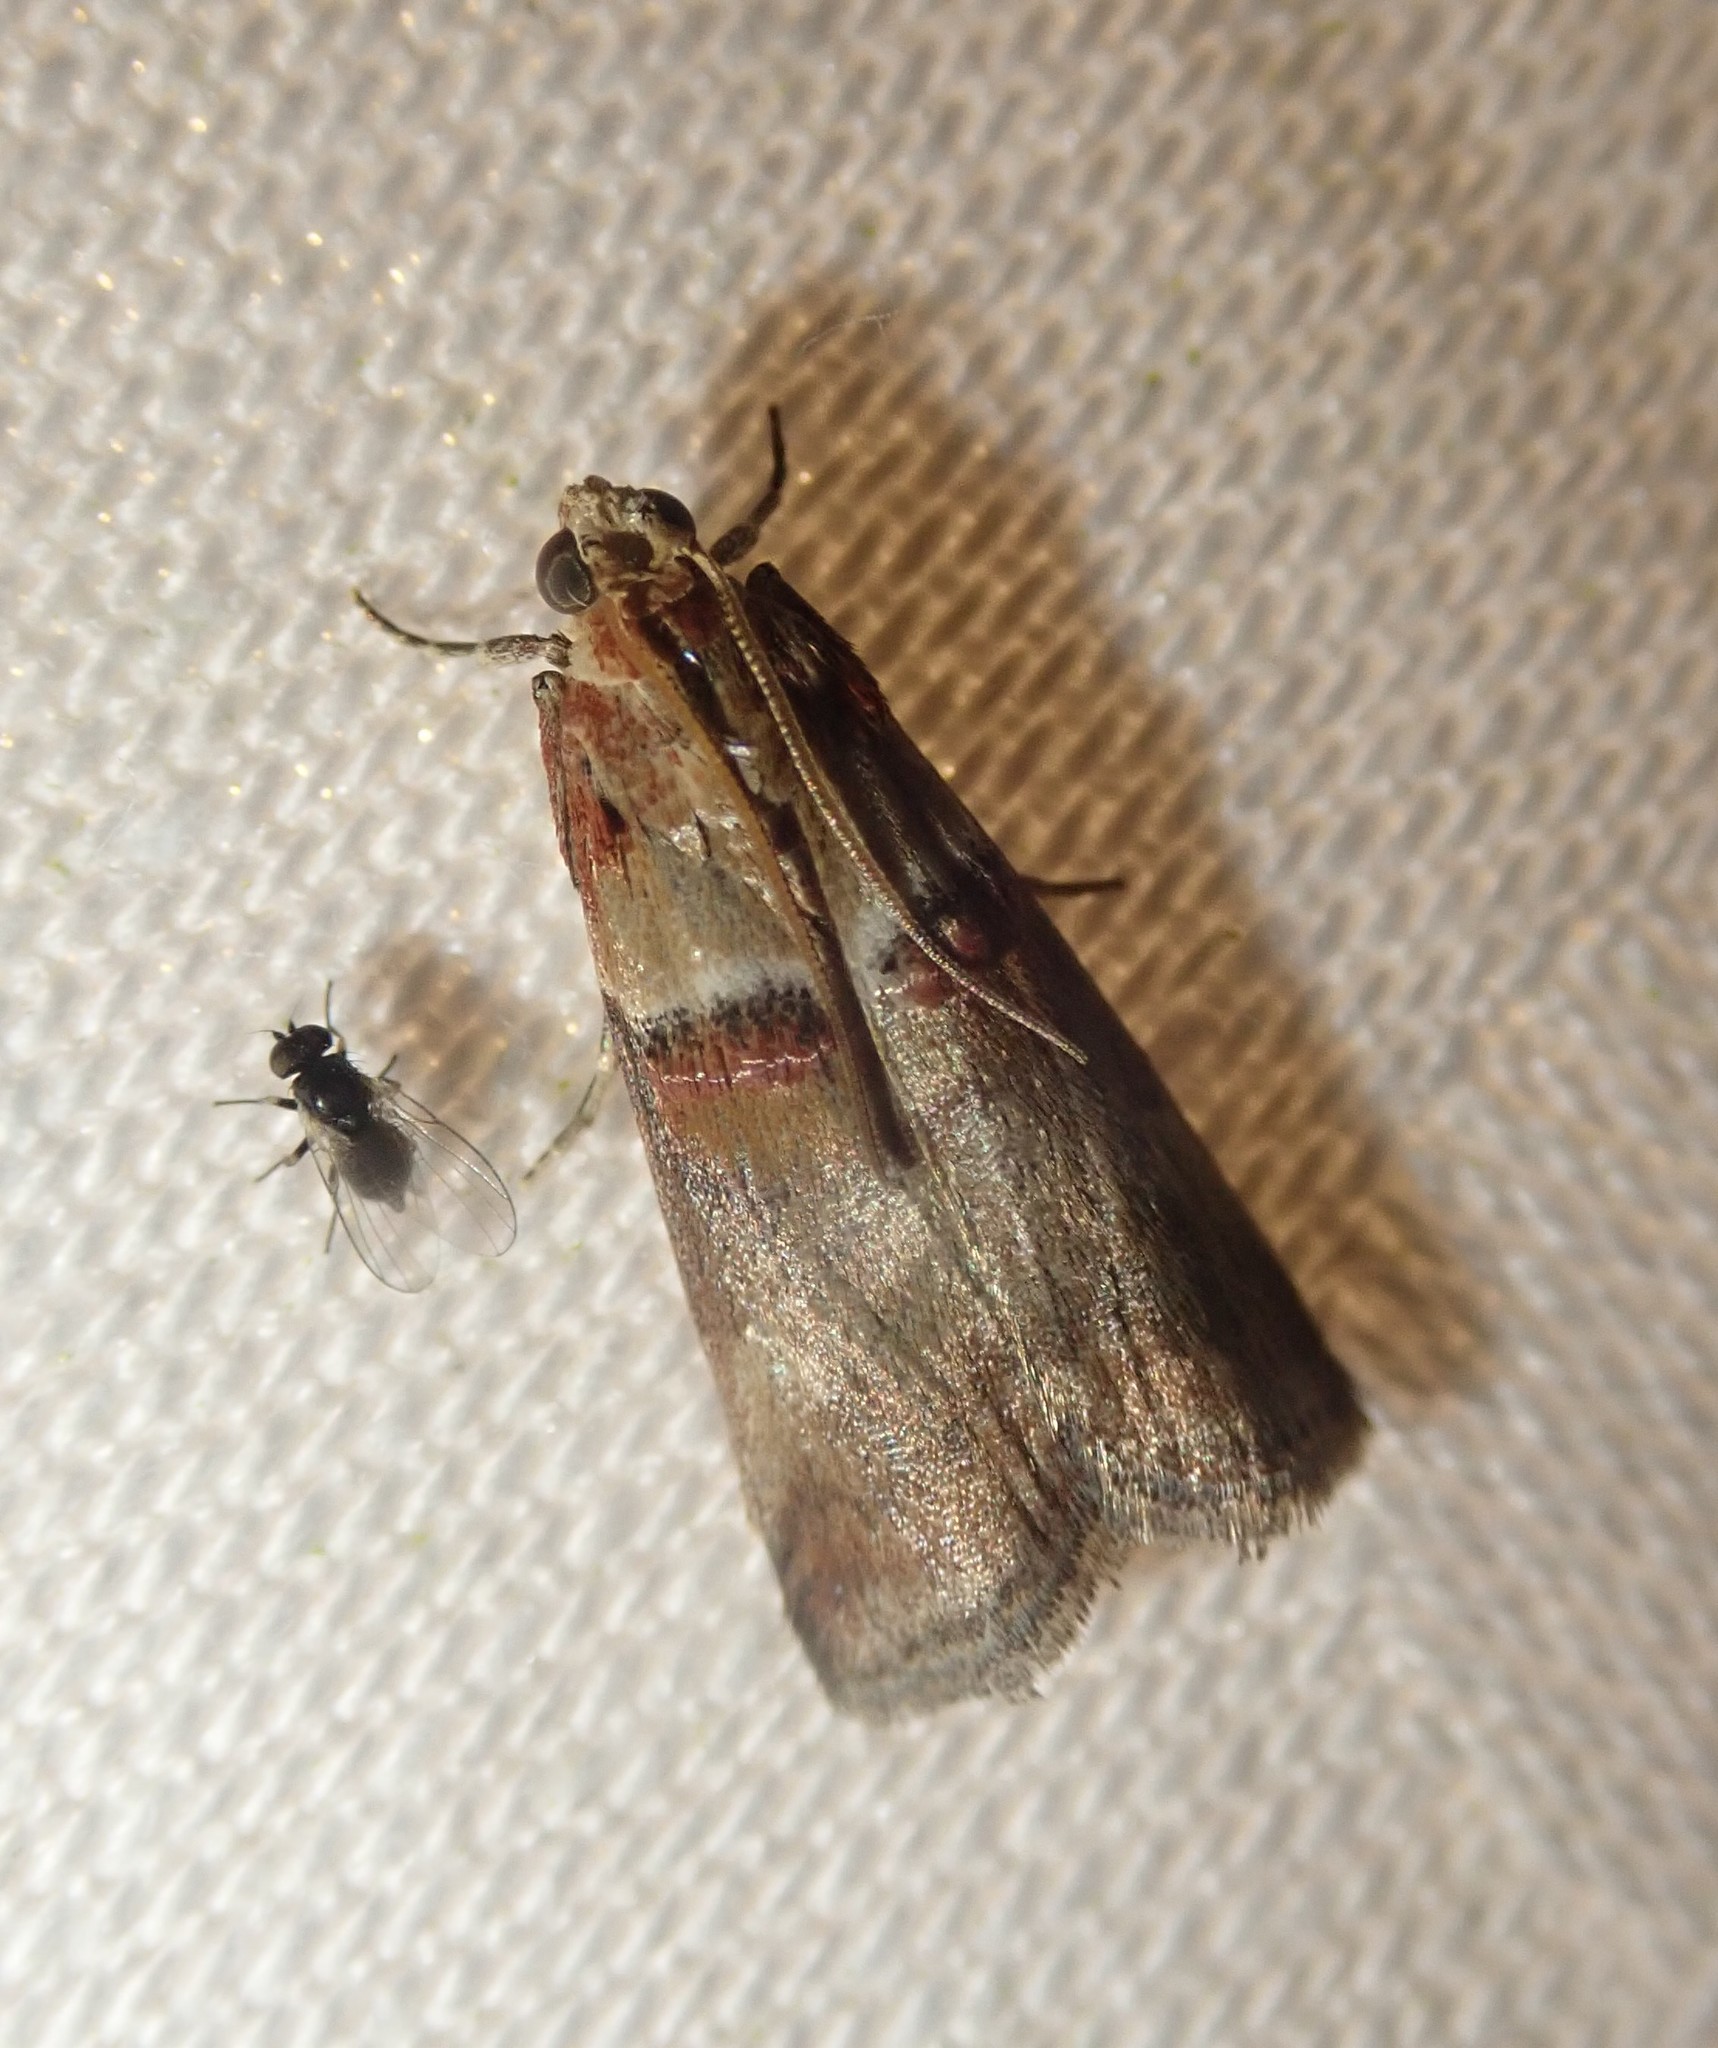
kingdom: Animalia
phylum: Arthropoda
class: Insecta
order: Lepidoptera
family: Pyralidae
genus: Acrobasis
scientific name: Acrobasis tumidana
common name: Scarce oak knot-horn
